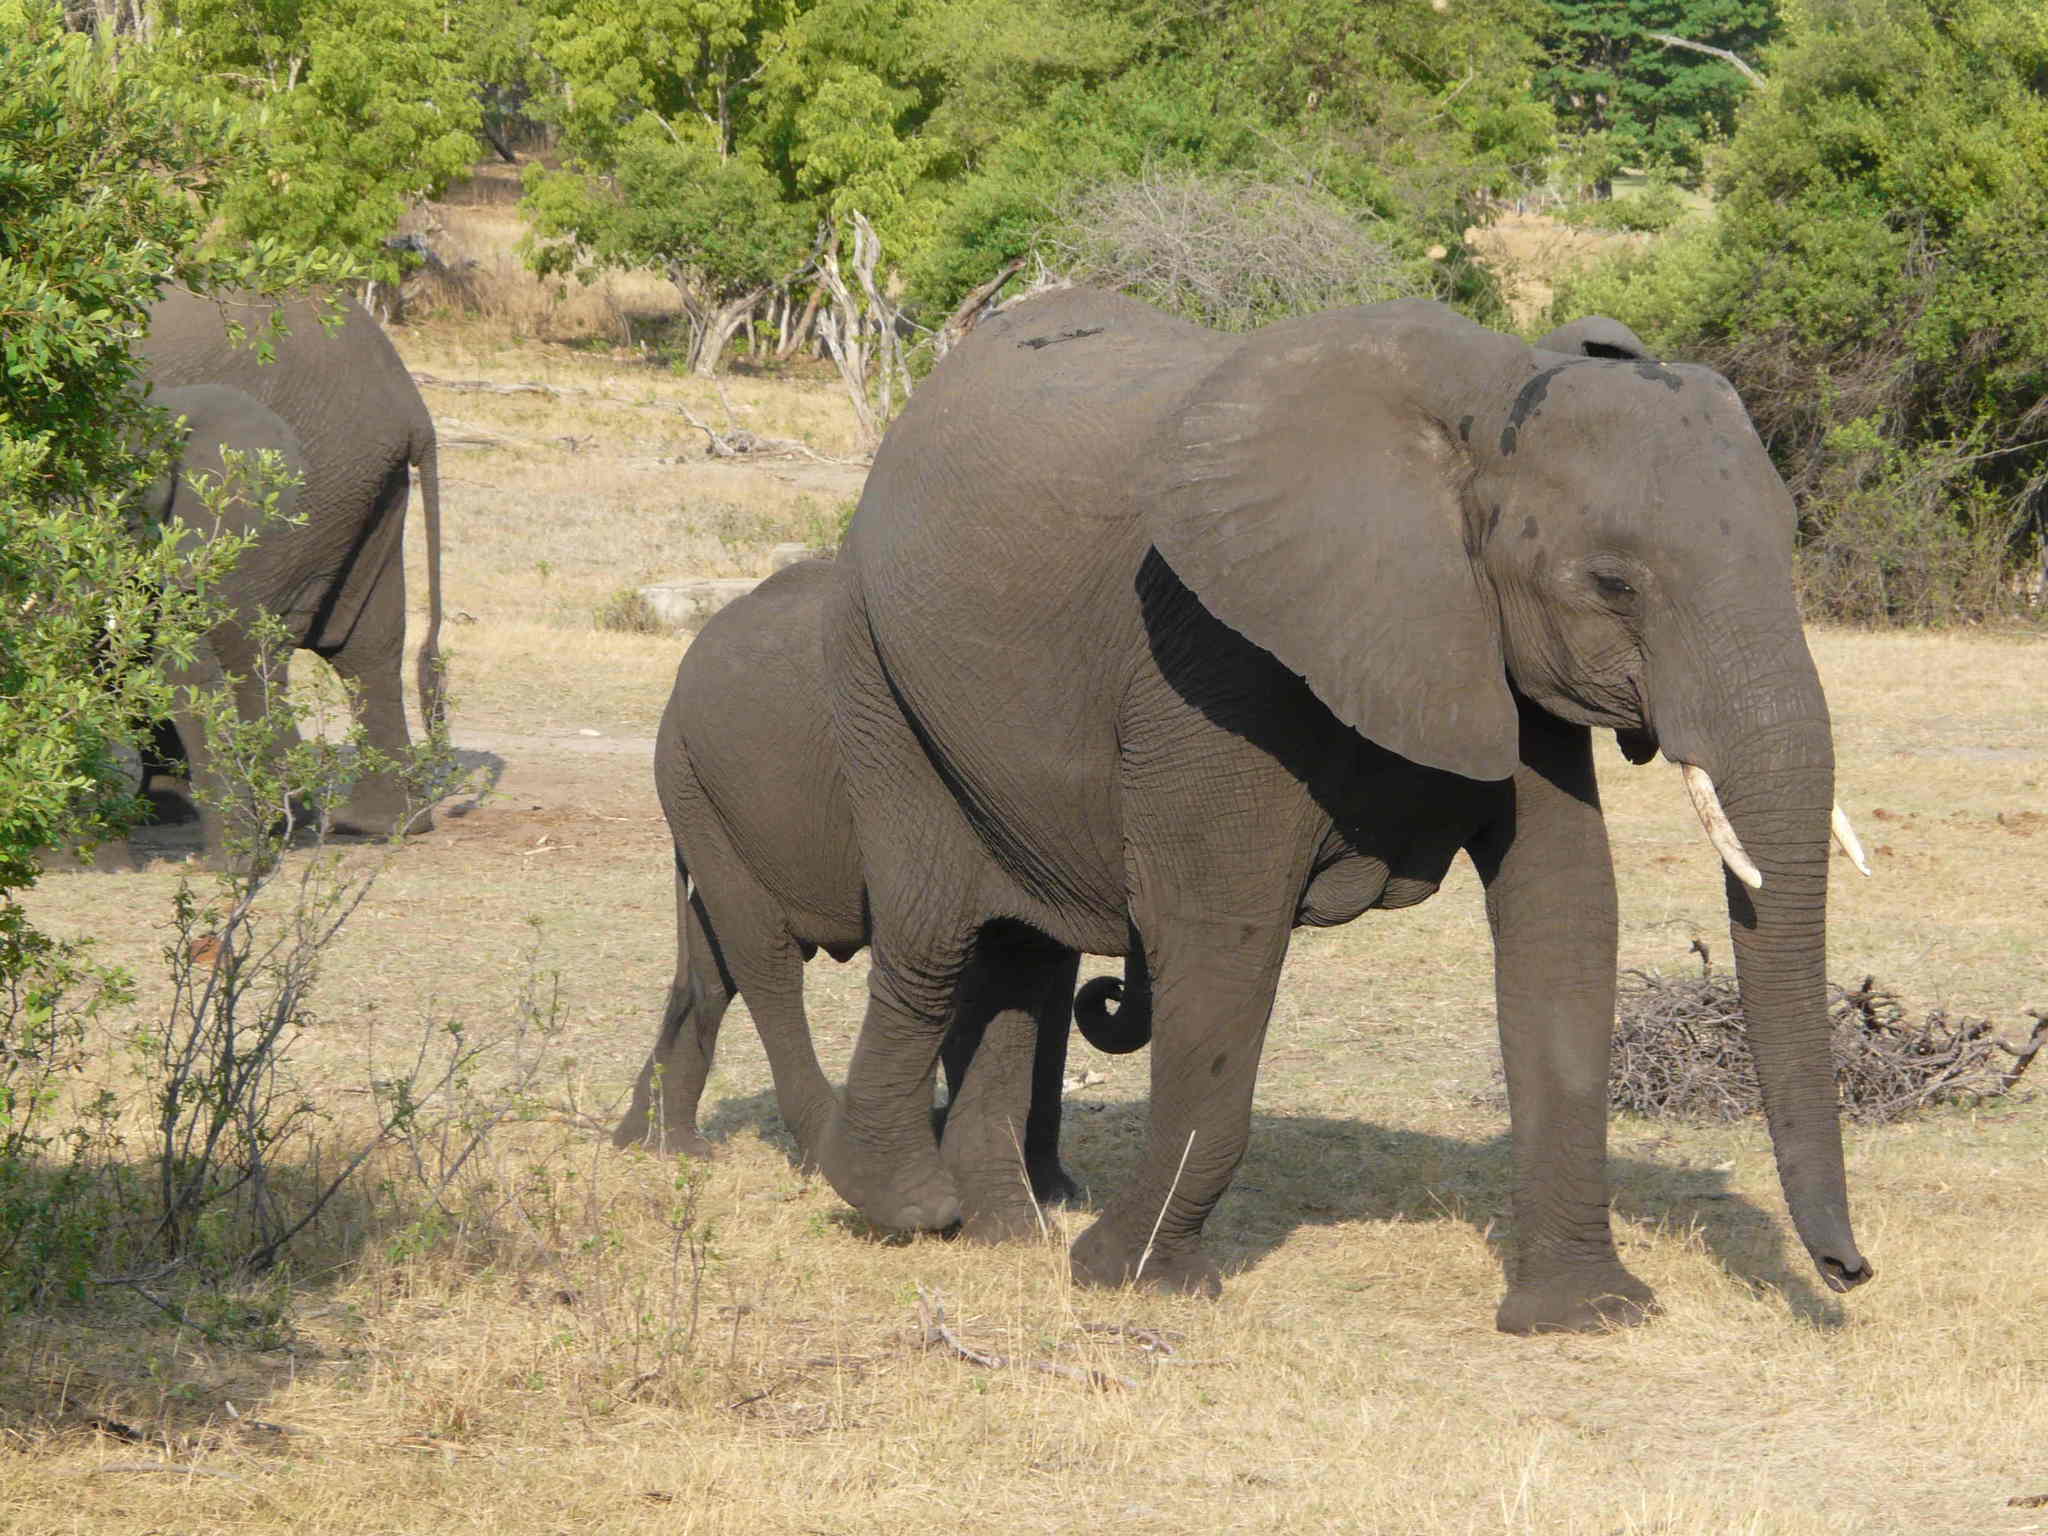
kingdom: Animalia
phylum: Chordata
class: Mammalia
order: Proboscidea
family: Elephantidae
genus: Loxodonta
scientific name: Loxodonta africana
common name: African elephant
